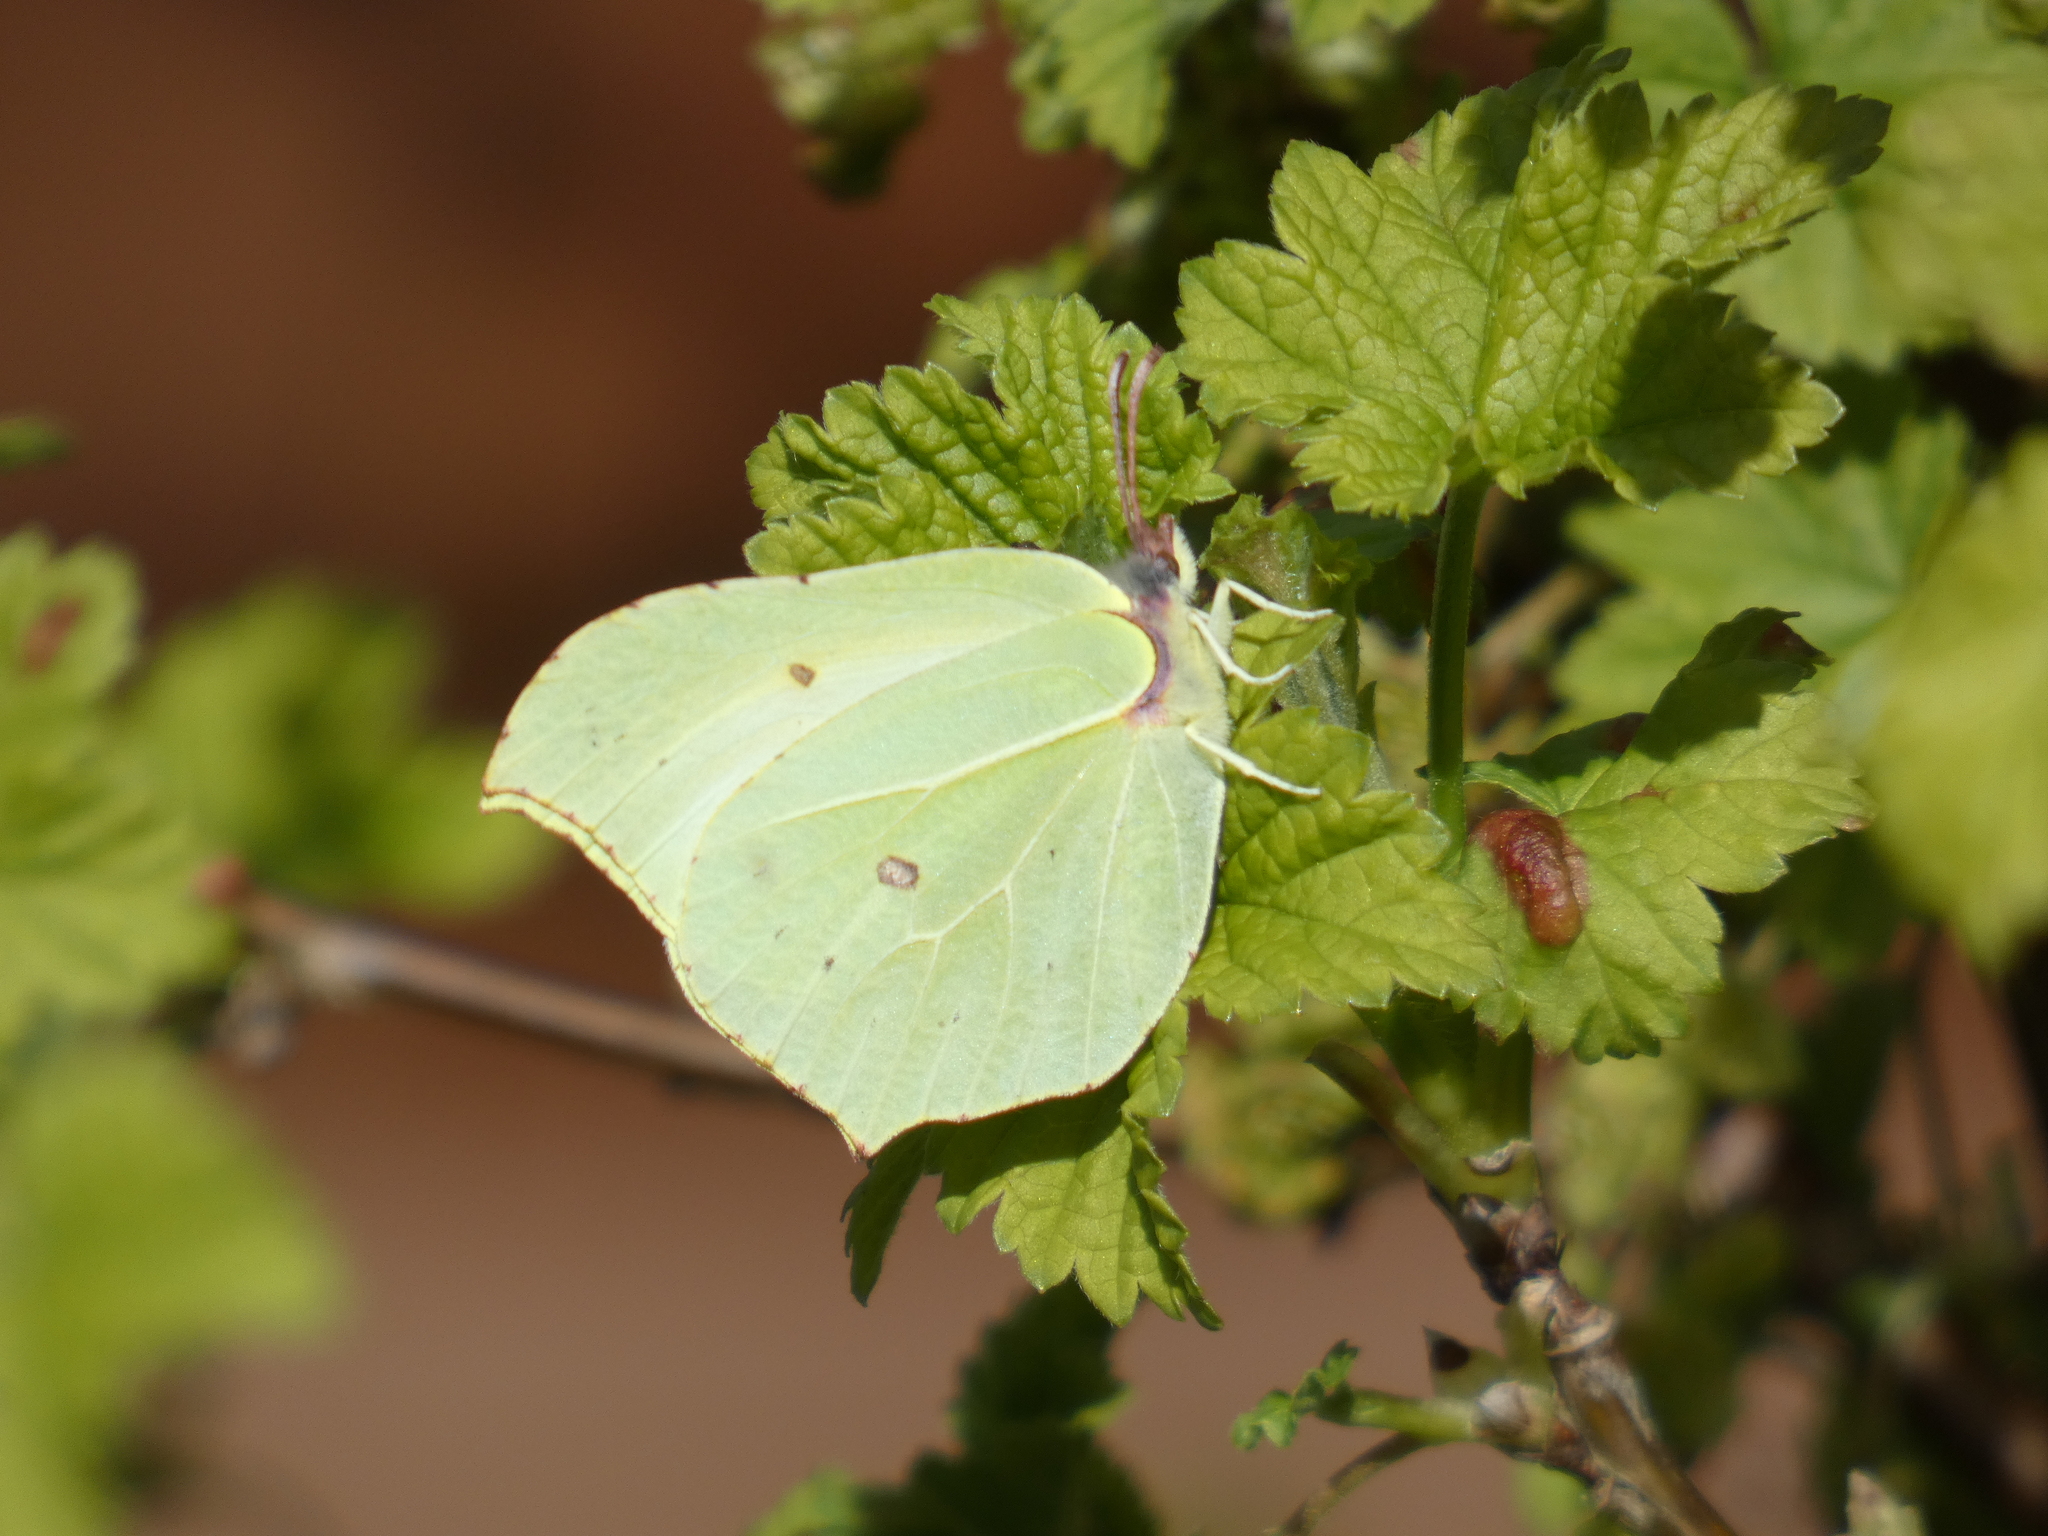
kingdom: Animalia
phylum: Arthropoda
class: Insecta
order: Lepidoptera
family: Pieridae
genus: Gonepteryx
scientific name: Gonepteryx rhamni
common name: Brimstone
